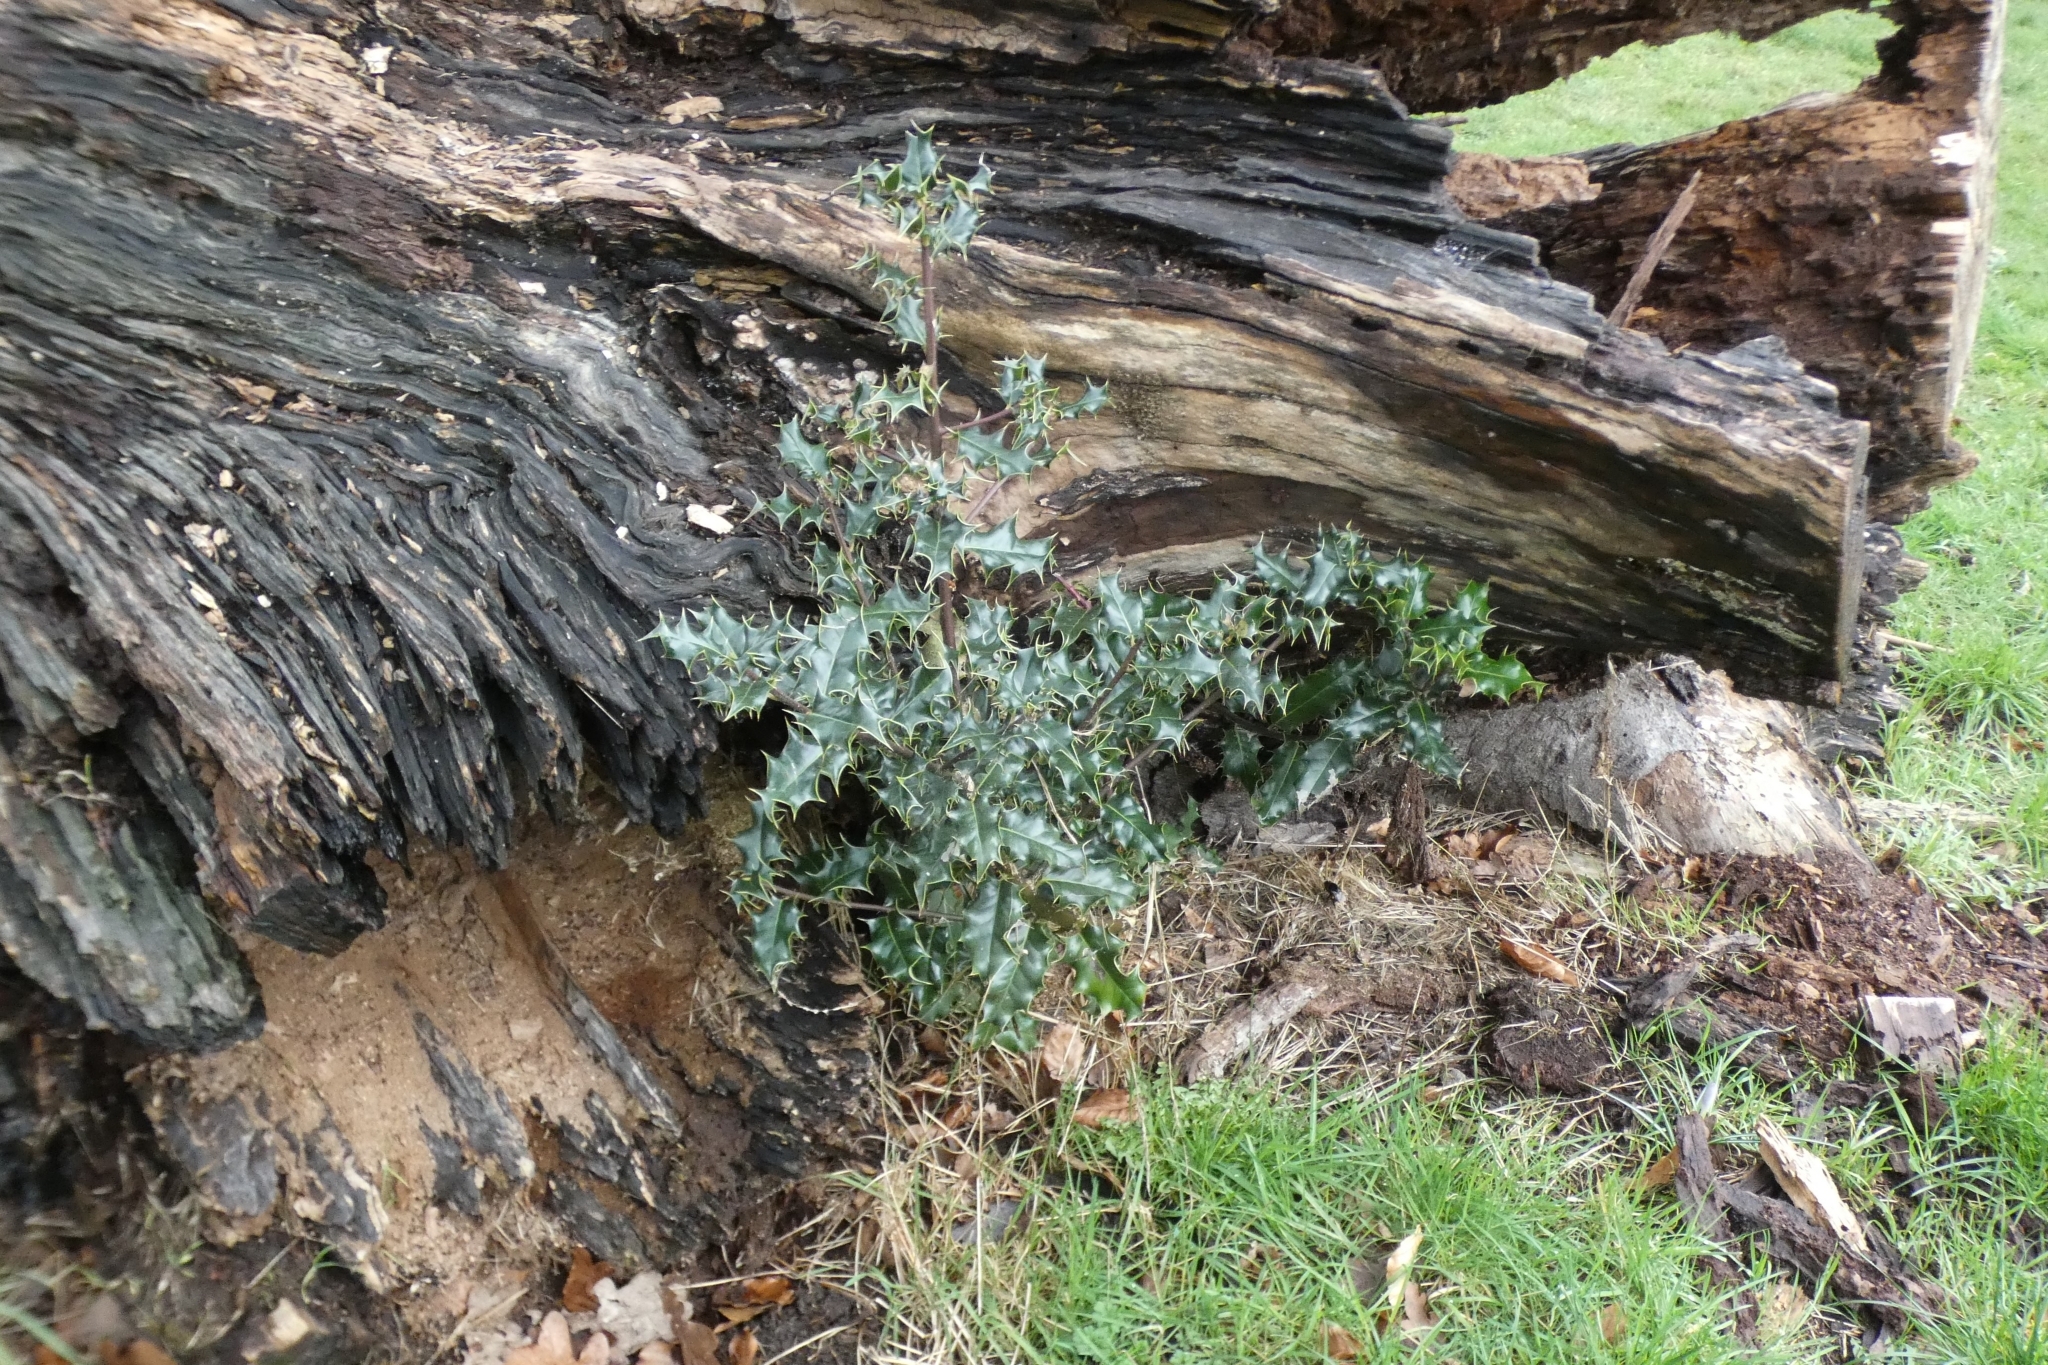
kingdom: Plantae
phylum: Tracheophyta
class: Magnoliopsida
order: Aquifoliales
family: Aquifoliaceae
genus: Ilex
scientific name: Ilex aquifolium
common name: English holly
